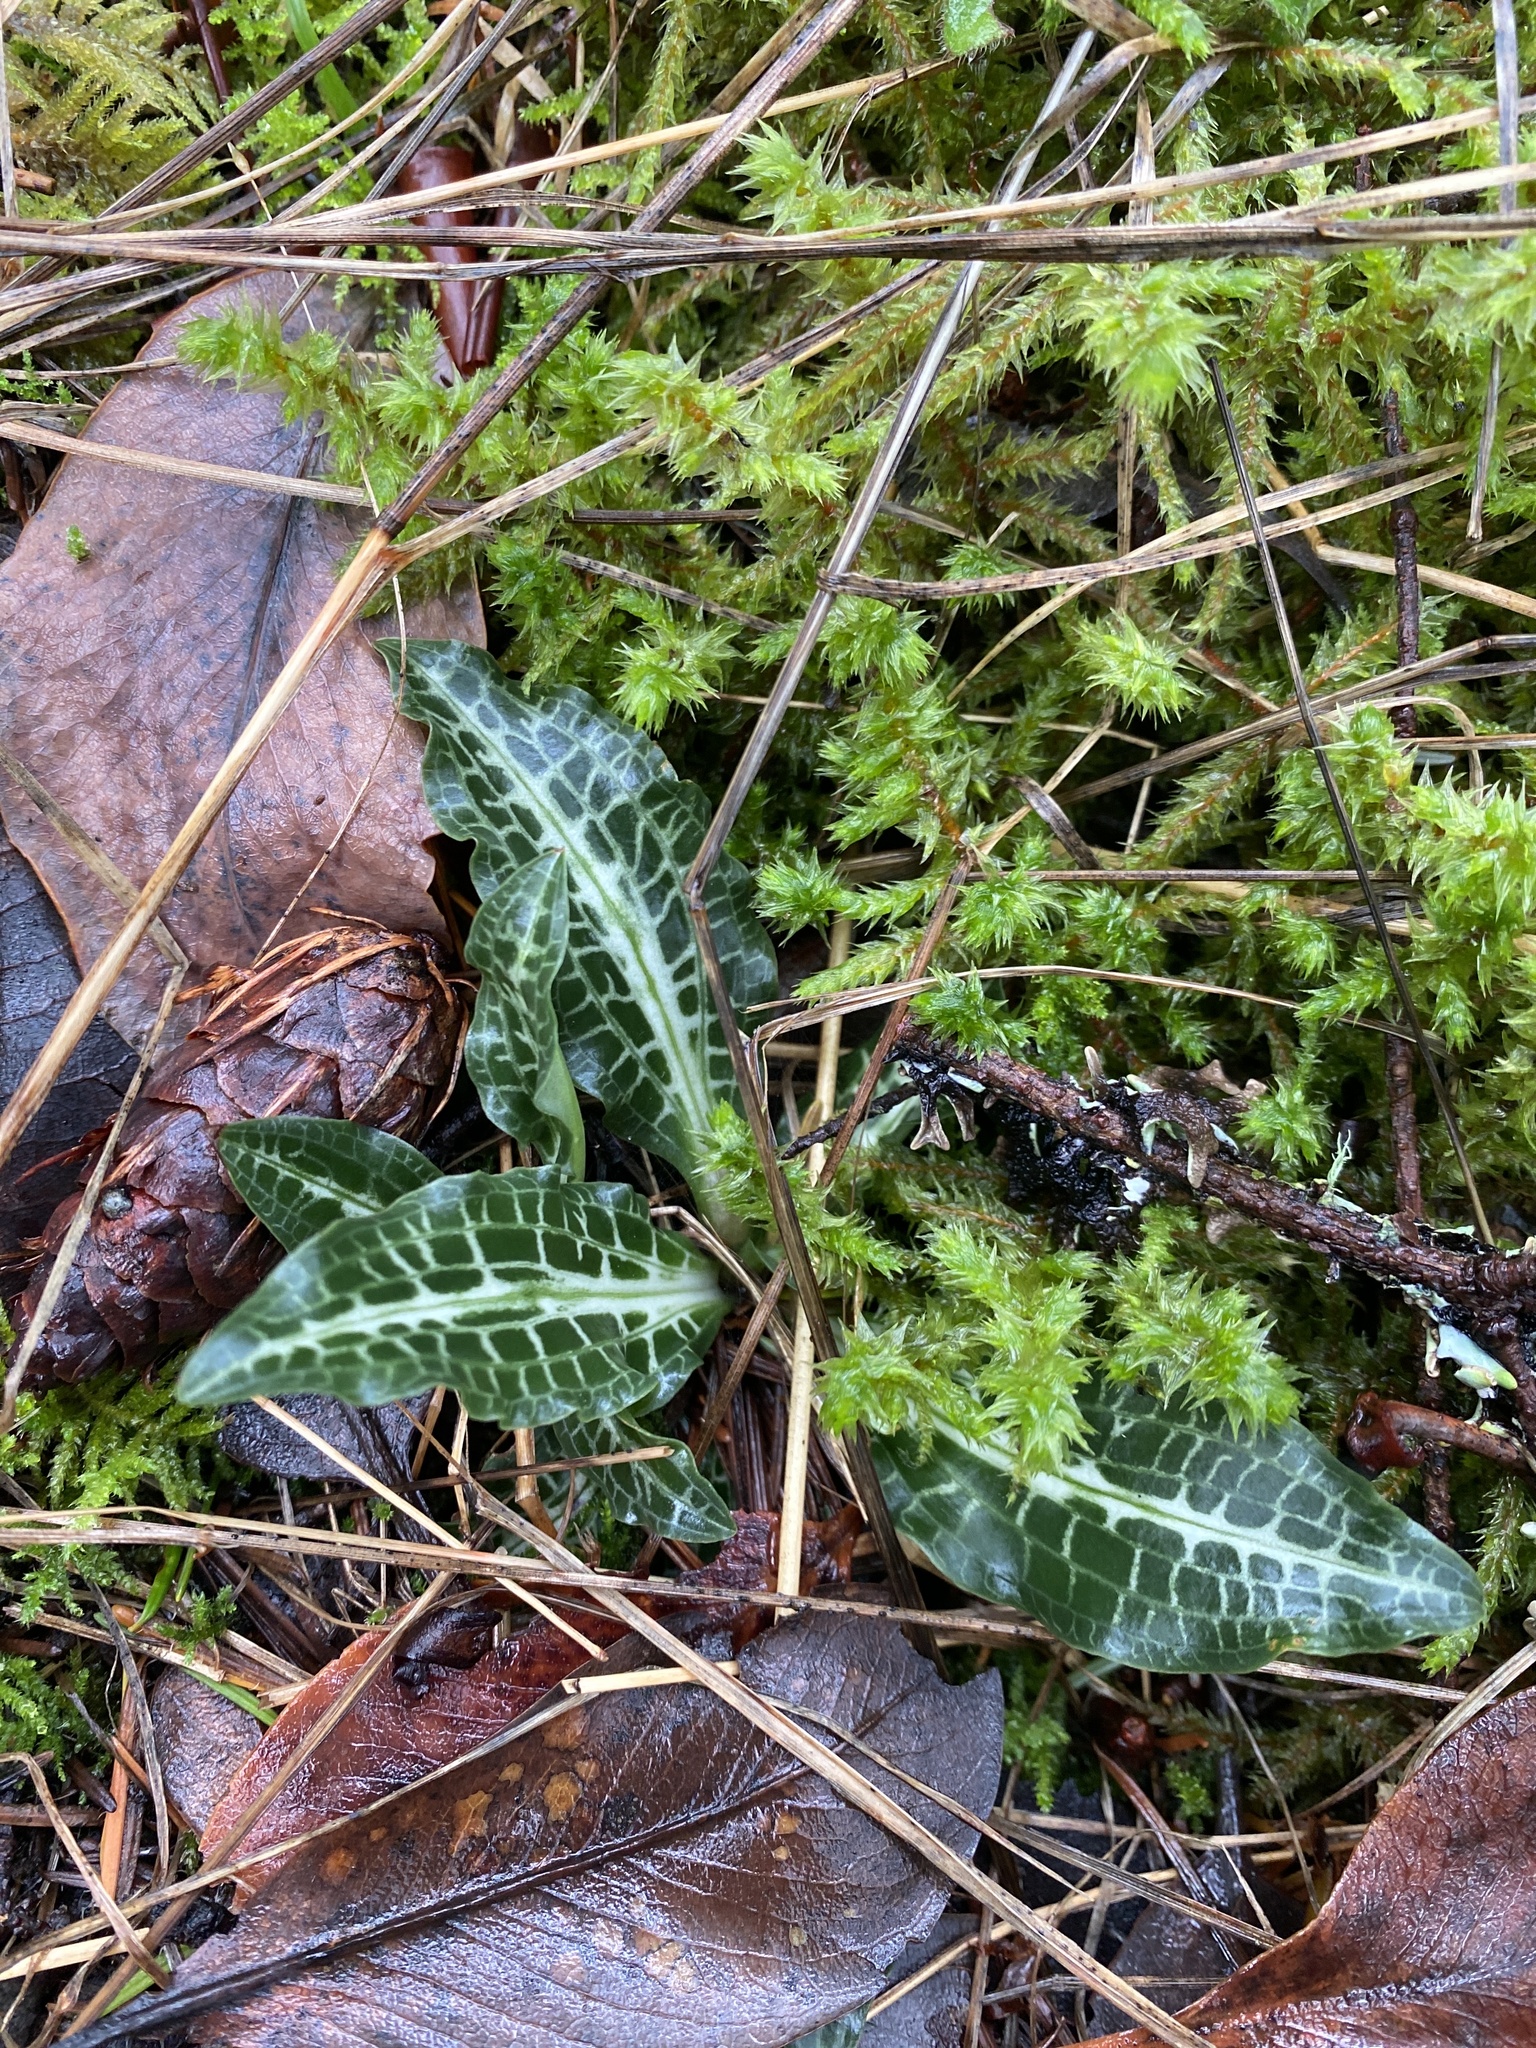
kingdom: Plantae
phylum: Tracheophyta
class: Liliopsida
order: Asparagales
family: Orchidaceae
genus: Goodyera
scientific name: Goodyera oblongifolia
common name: Giant rattlesnake-plantain
